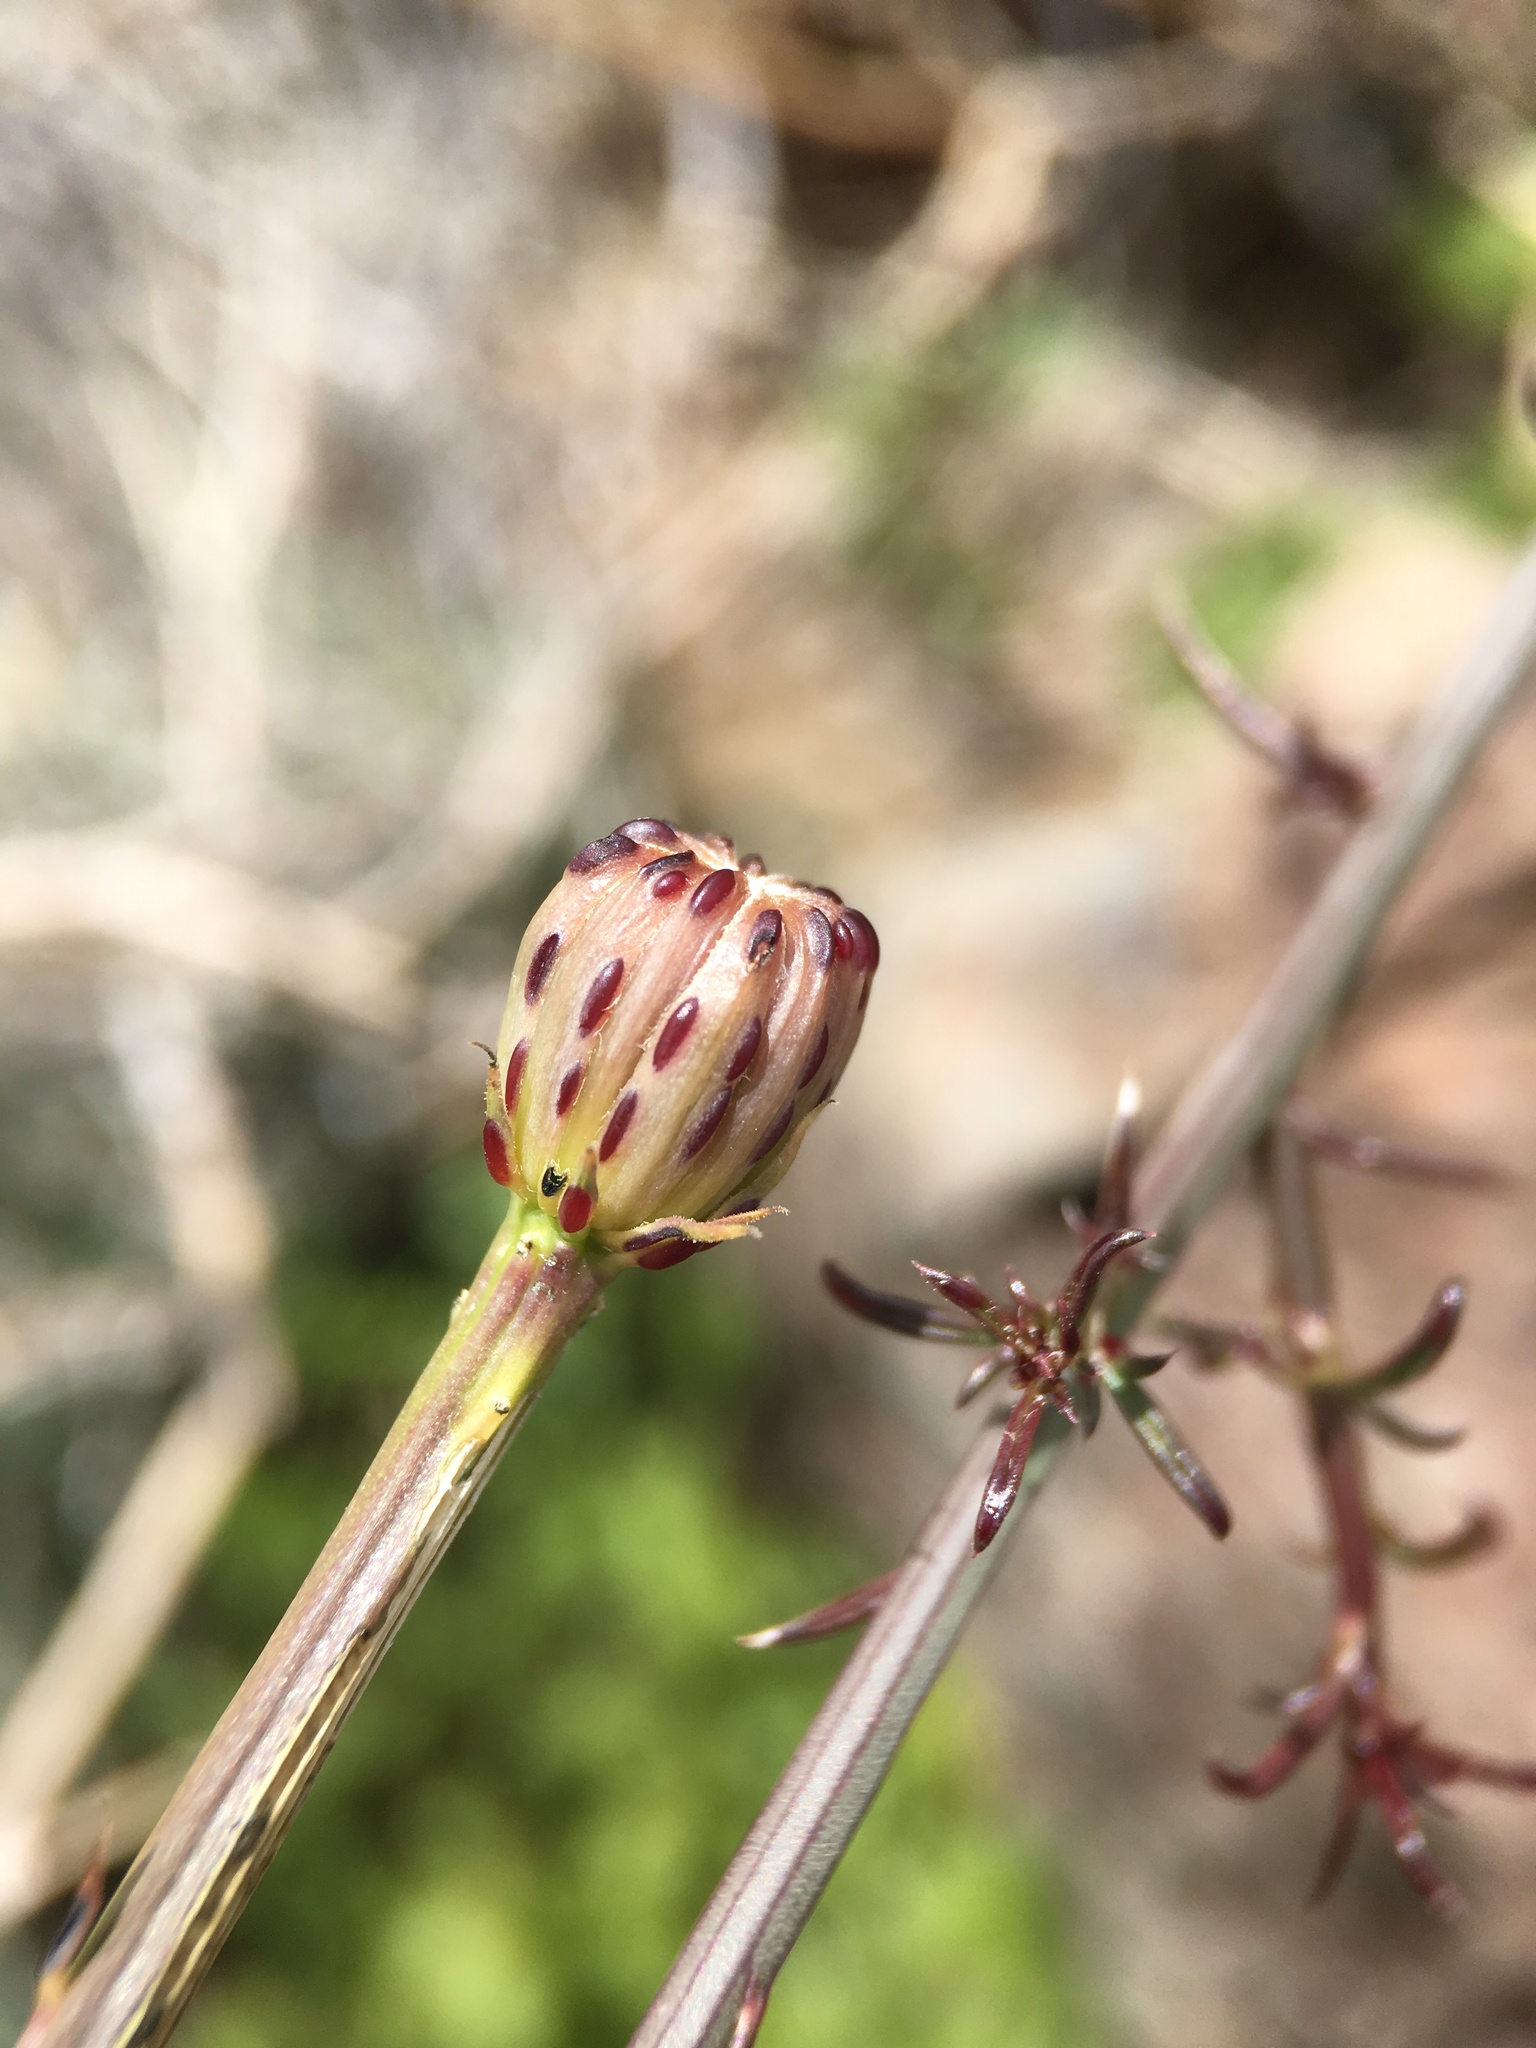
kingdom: Plantae
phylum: Tracheophyta
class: Magnoliopsida
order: Asterales
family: Asteraceae
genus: Adenophyllum
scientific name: Adenophyllum porophylloides
